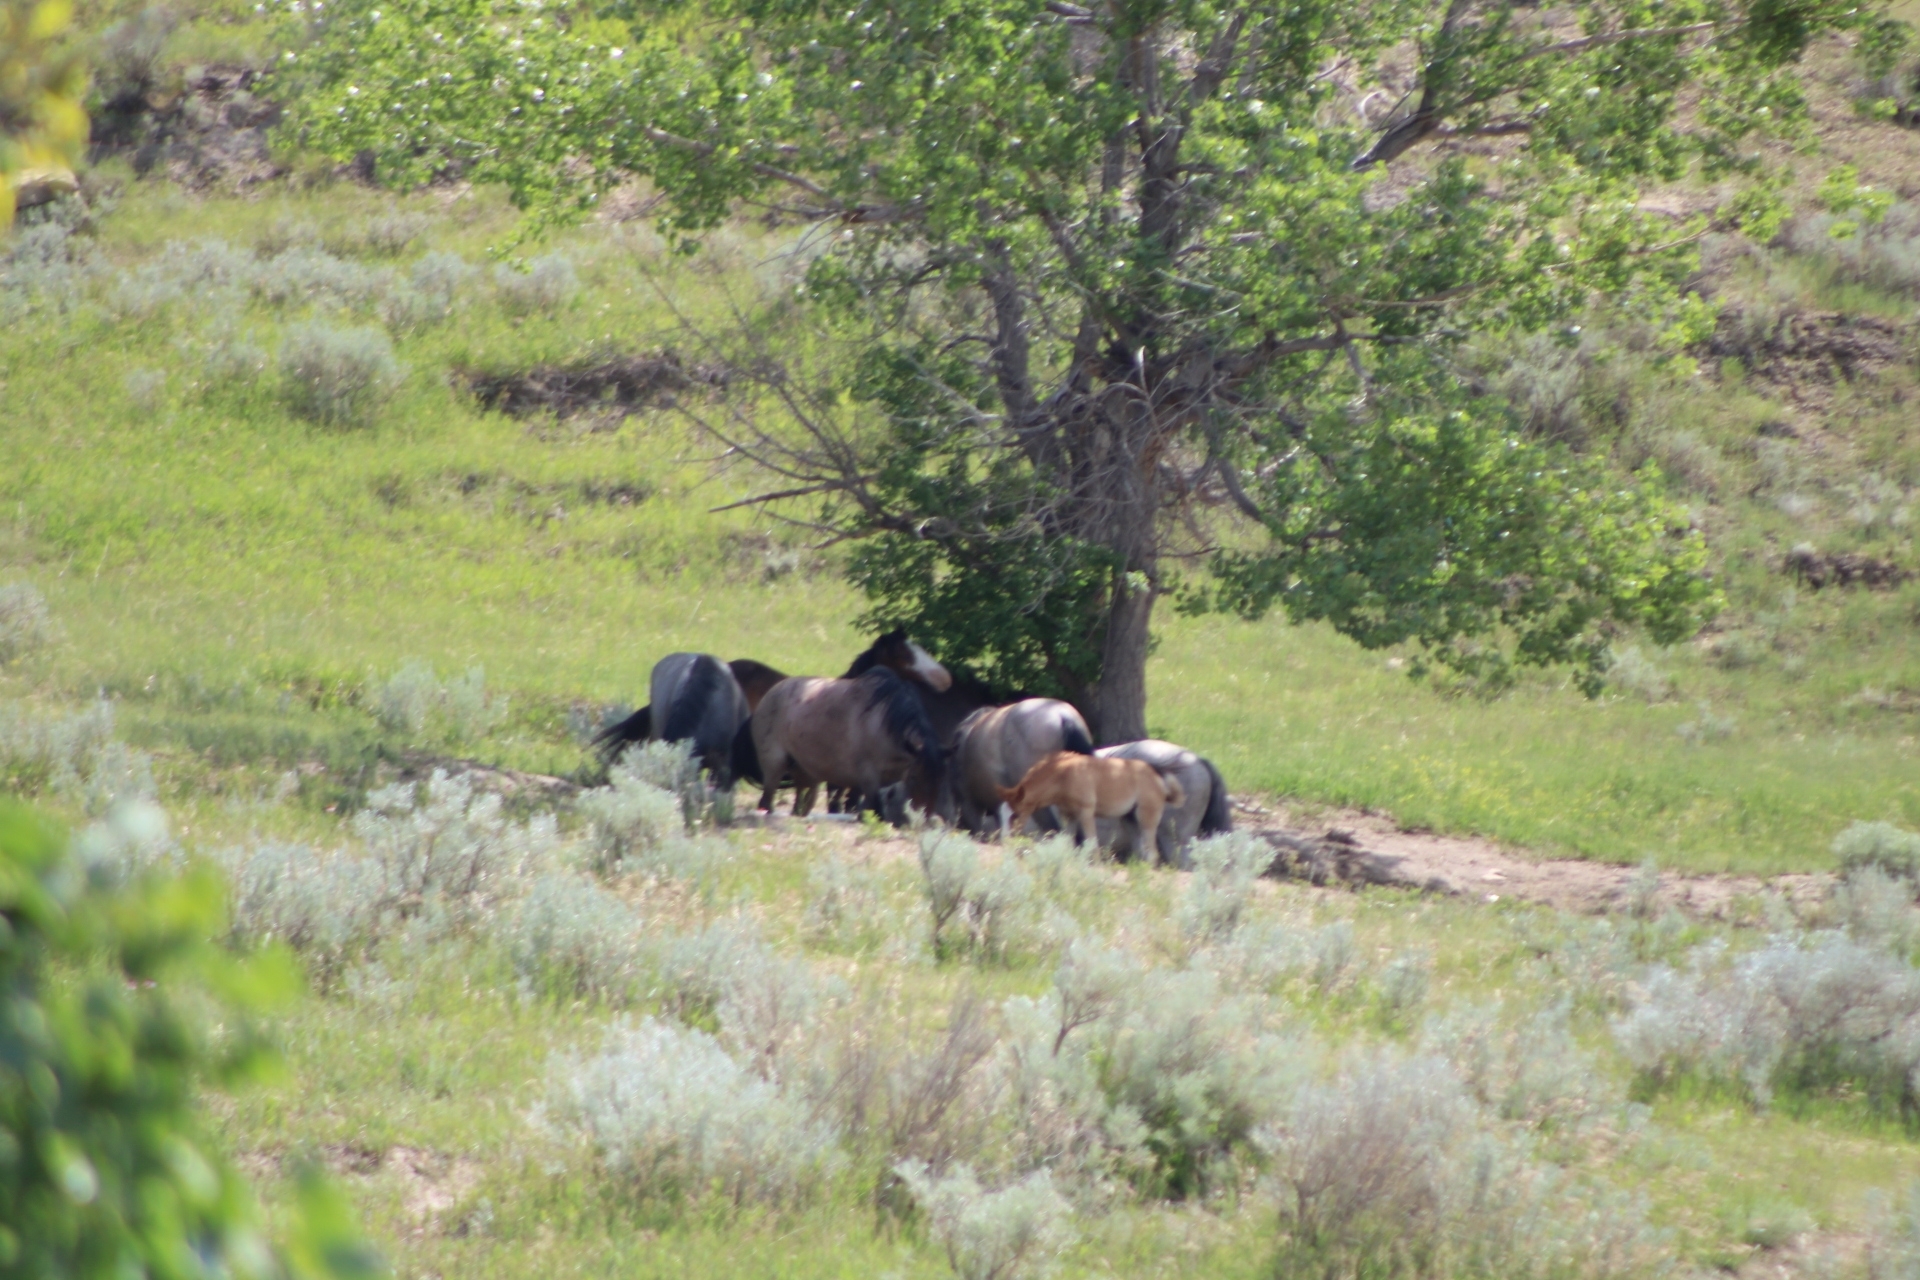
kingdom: Animalia
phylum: Chordata
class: Mammalia
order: Perissodactyla
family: Equidae
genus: Equus
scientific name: Equus caballus
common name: Horse
